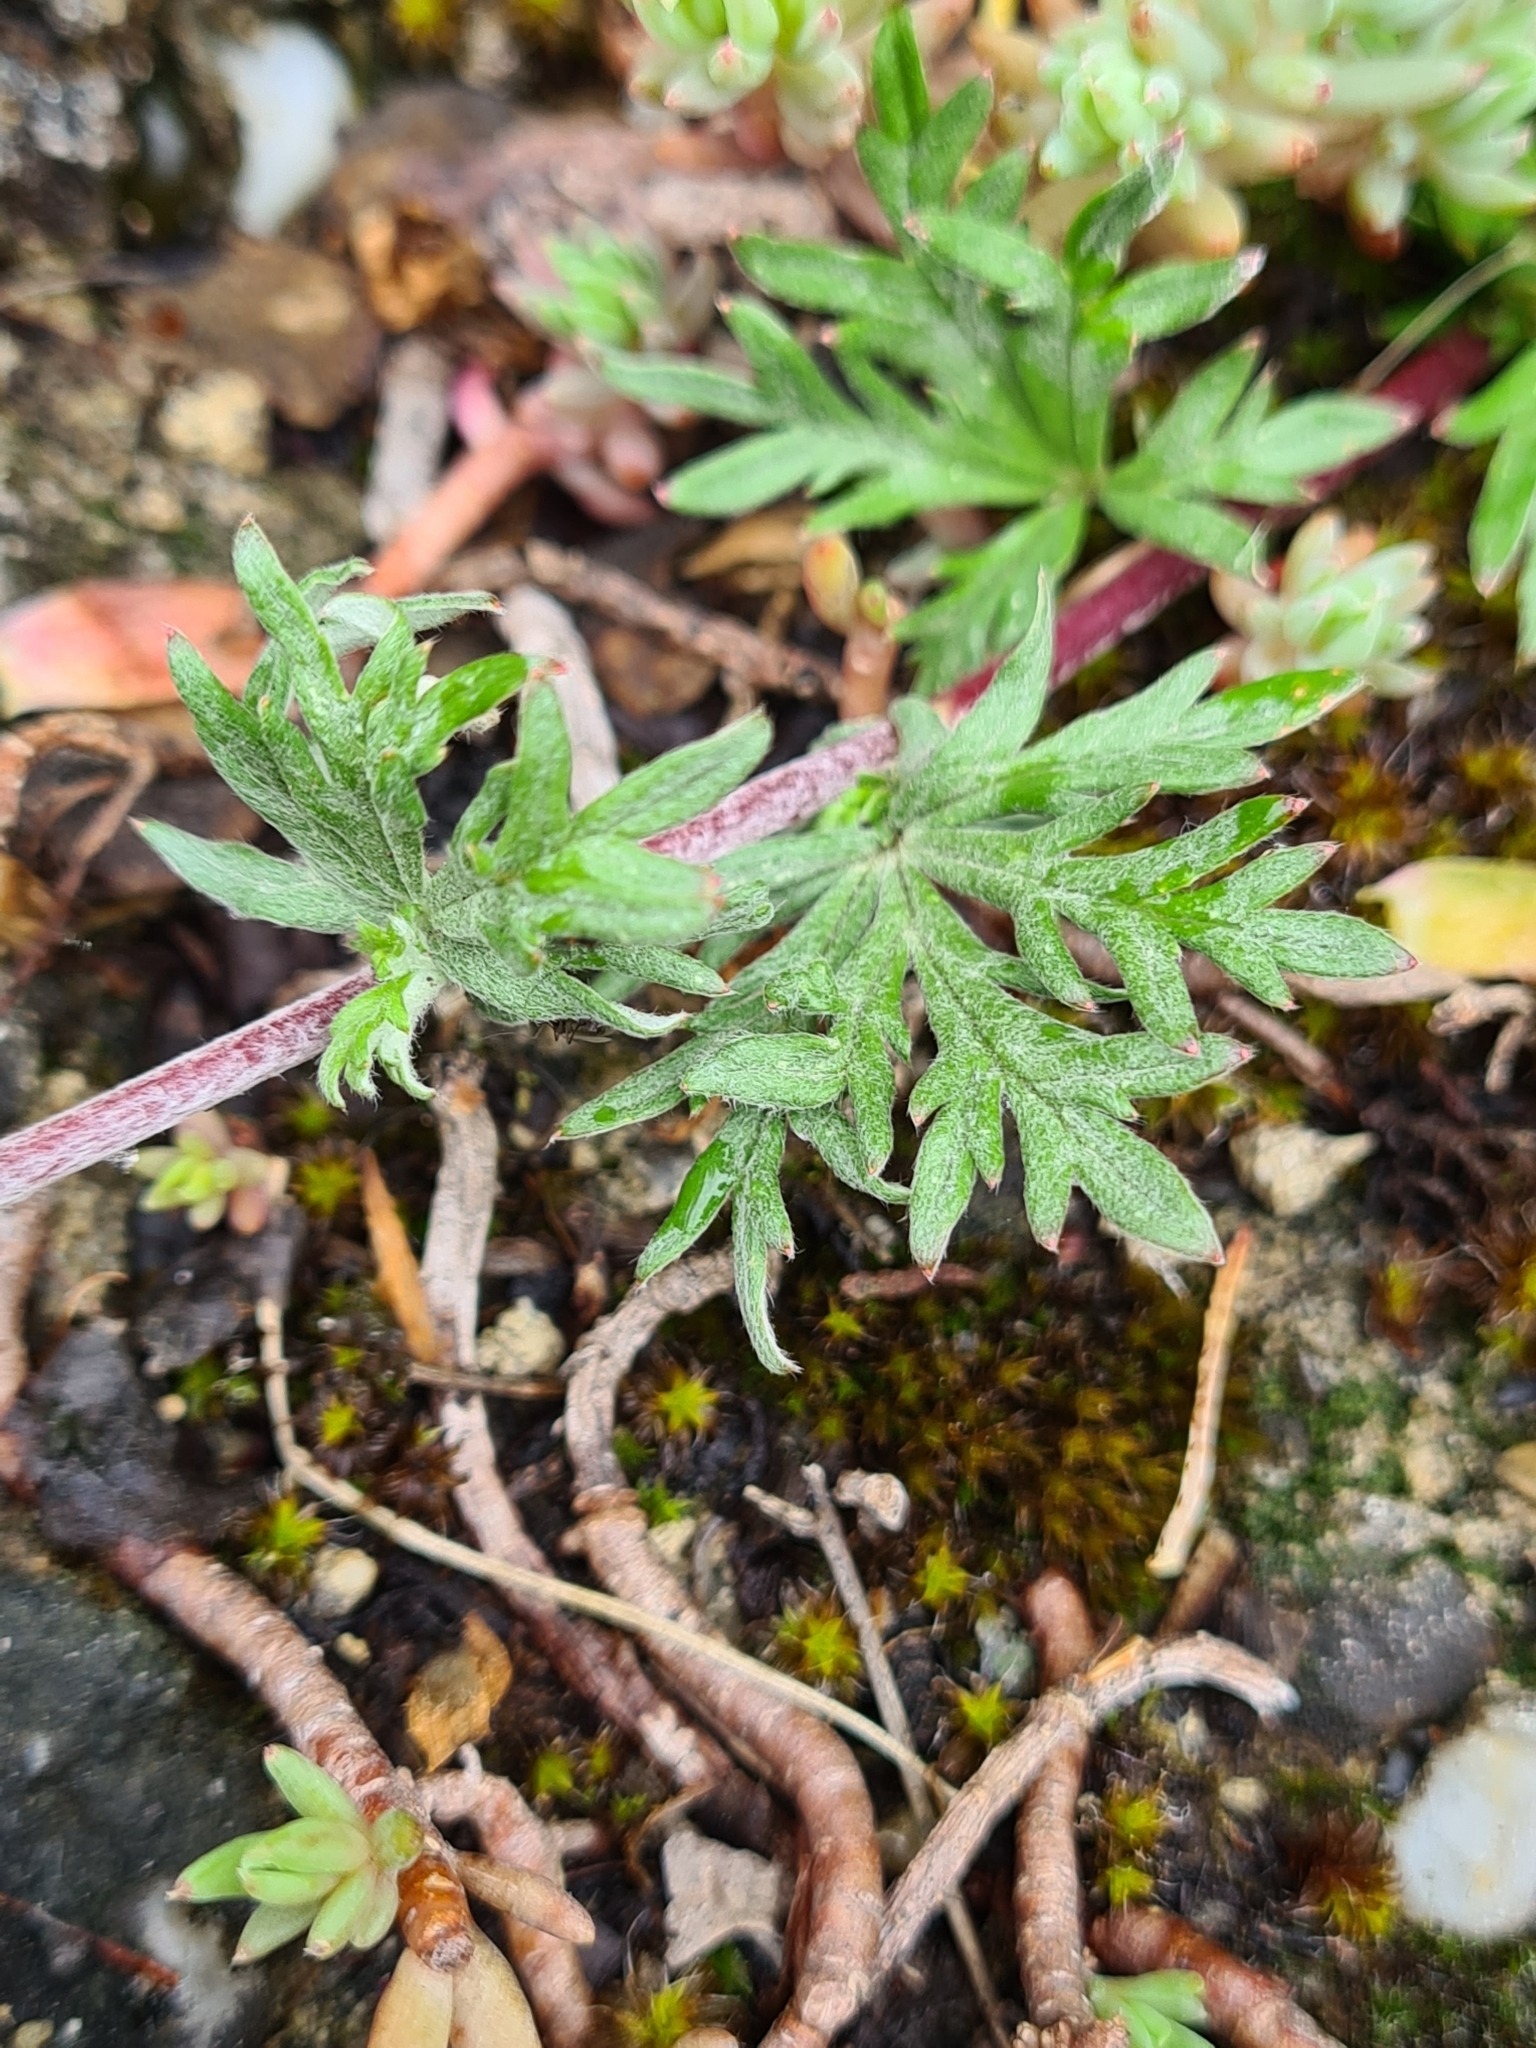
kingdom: Plantae
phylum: Tracheophyta
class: Magnoliopsida
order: Rosales
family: Rosaceae
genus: Potentilla
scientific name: Potentilla argentea
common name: Hoary cinquefoil
